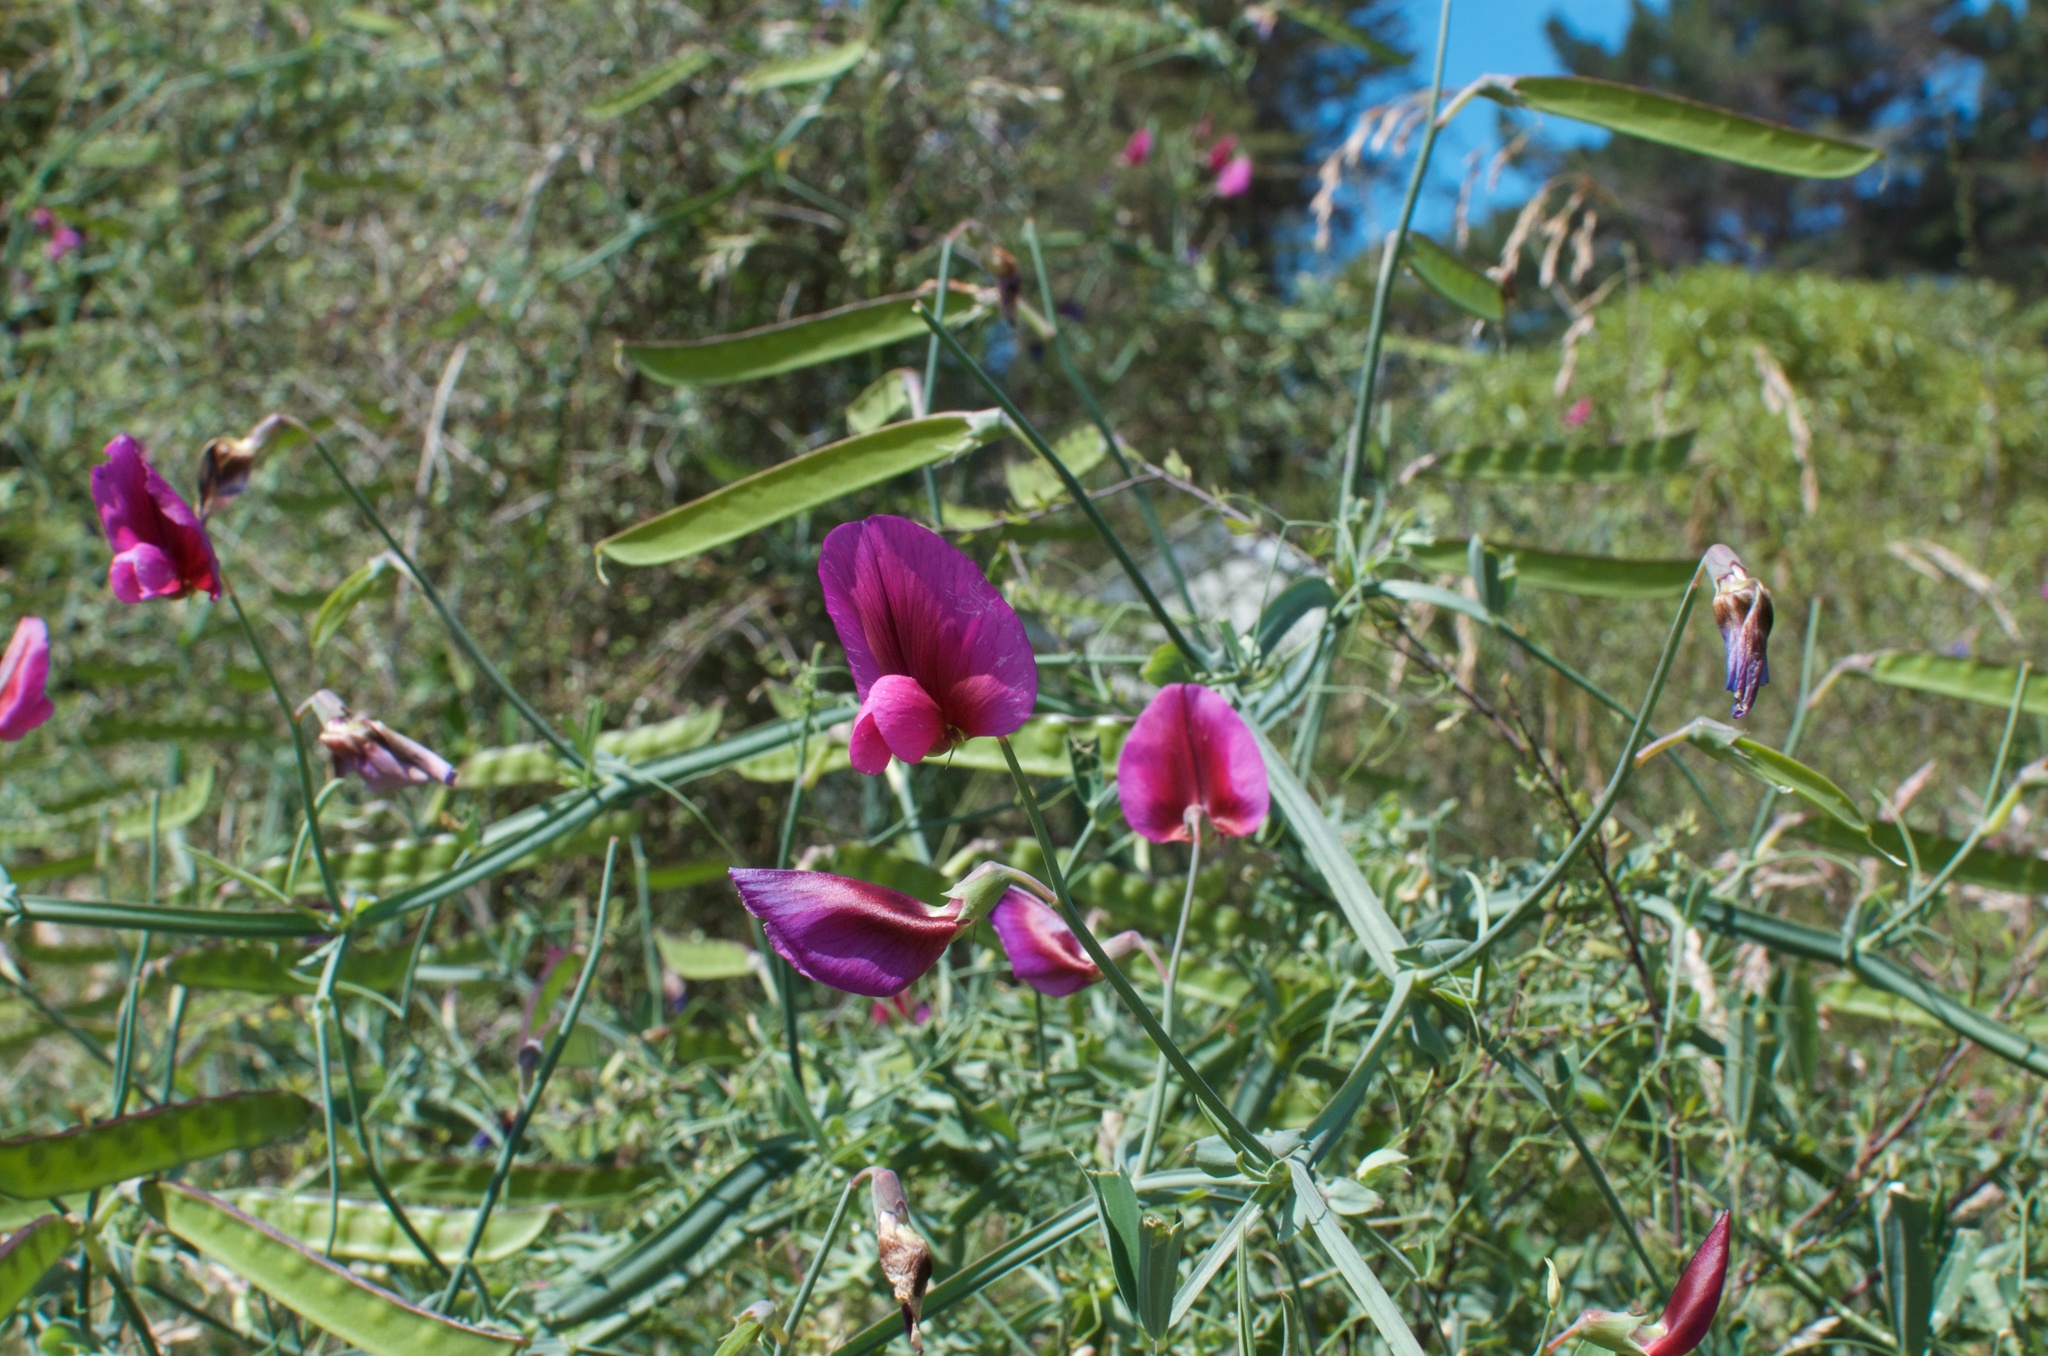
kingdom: Plantae
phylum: Tracheophyta
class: Magnoliopsida
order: Fabales
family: Fabaceae
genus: Lathyrus
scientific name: Lathyrus tingitanus
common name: Tangier pea
